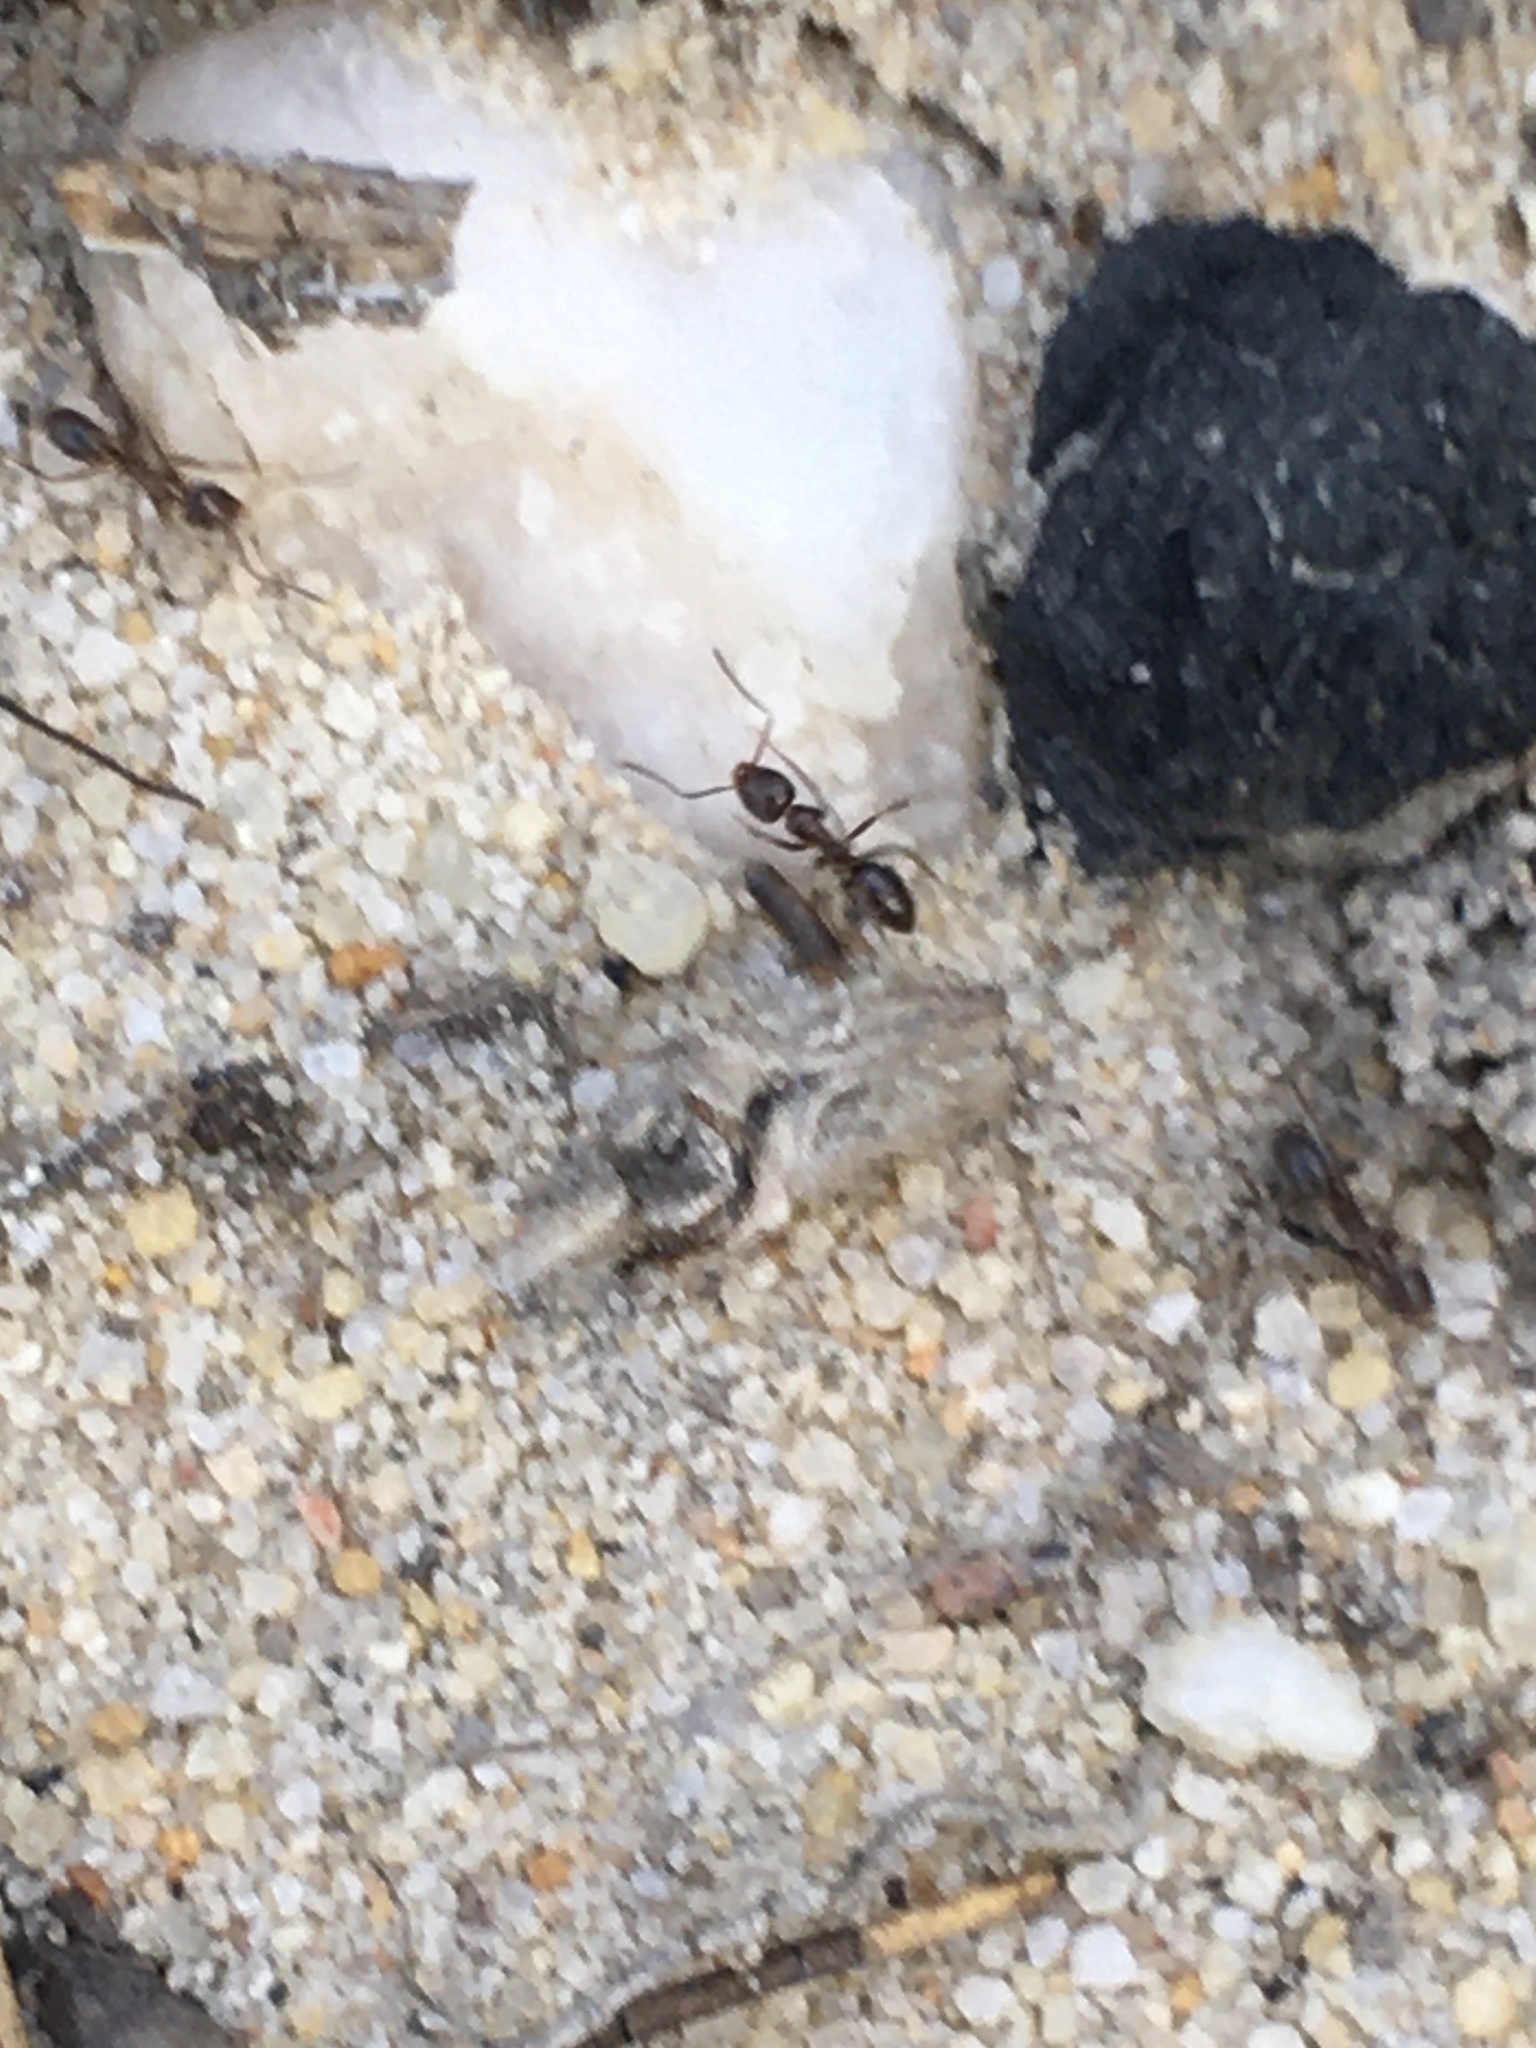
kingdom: Animalia
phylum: Arthropoda
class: Insecta
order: Hymenoptera
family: Formicidae
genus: Linepithema
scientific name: Linepithema humile
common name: Argentine ant
